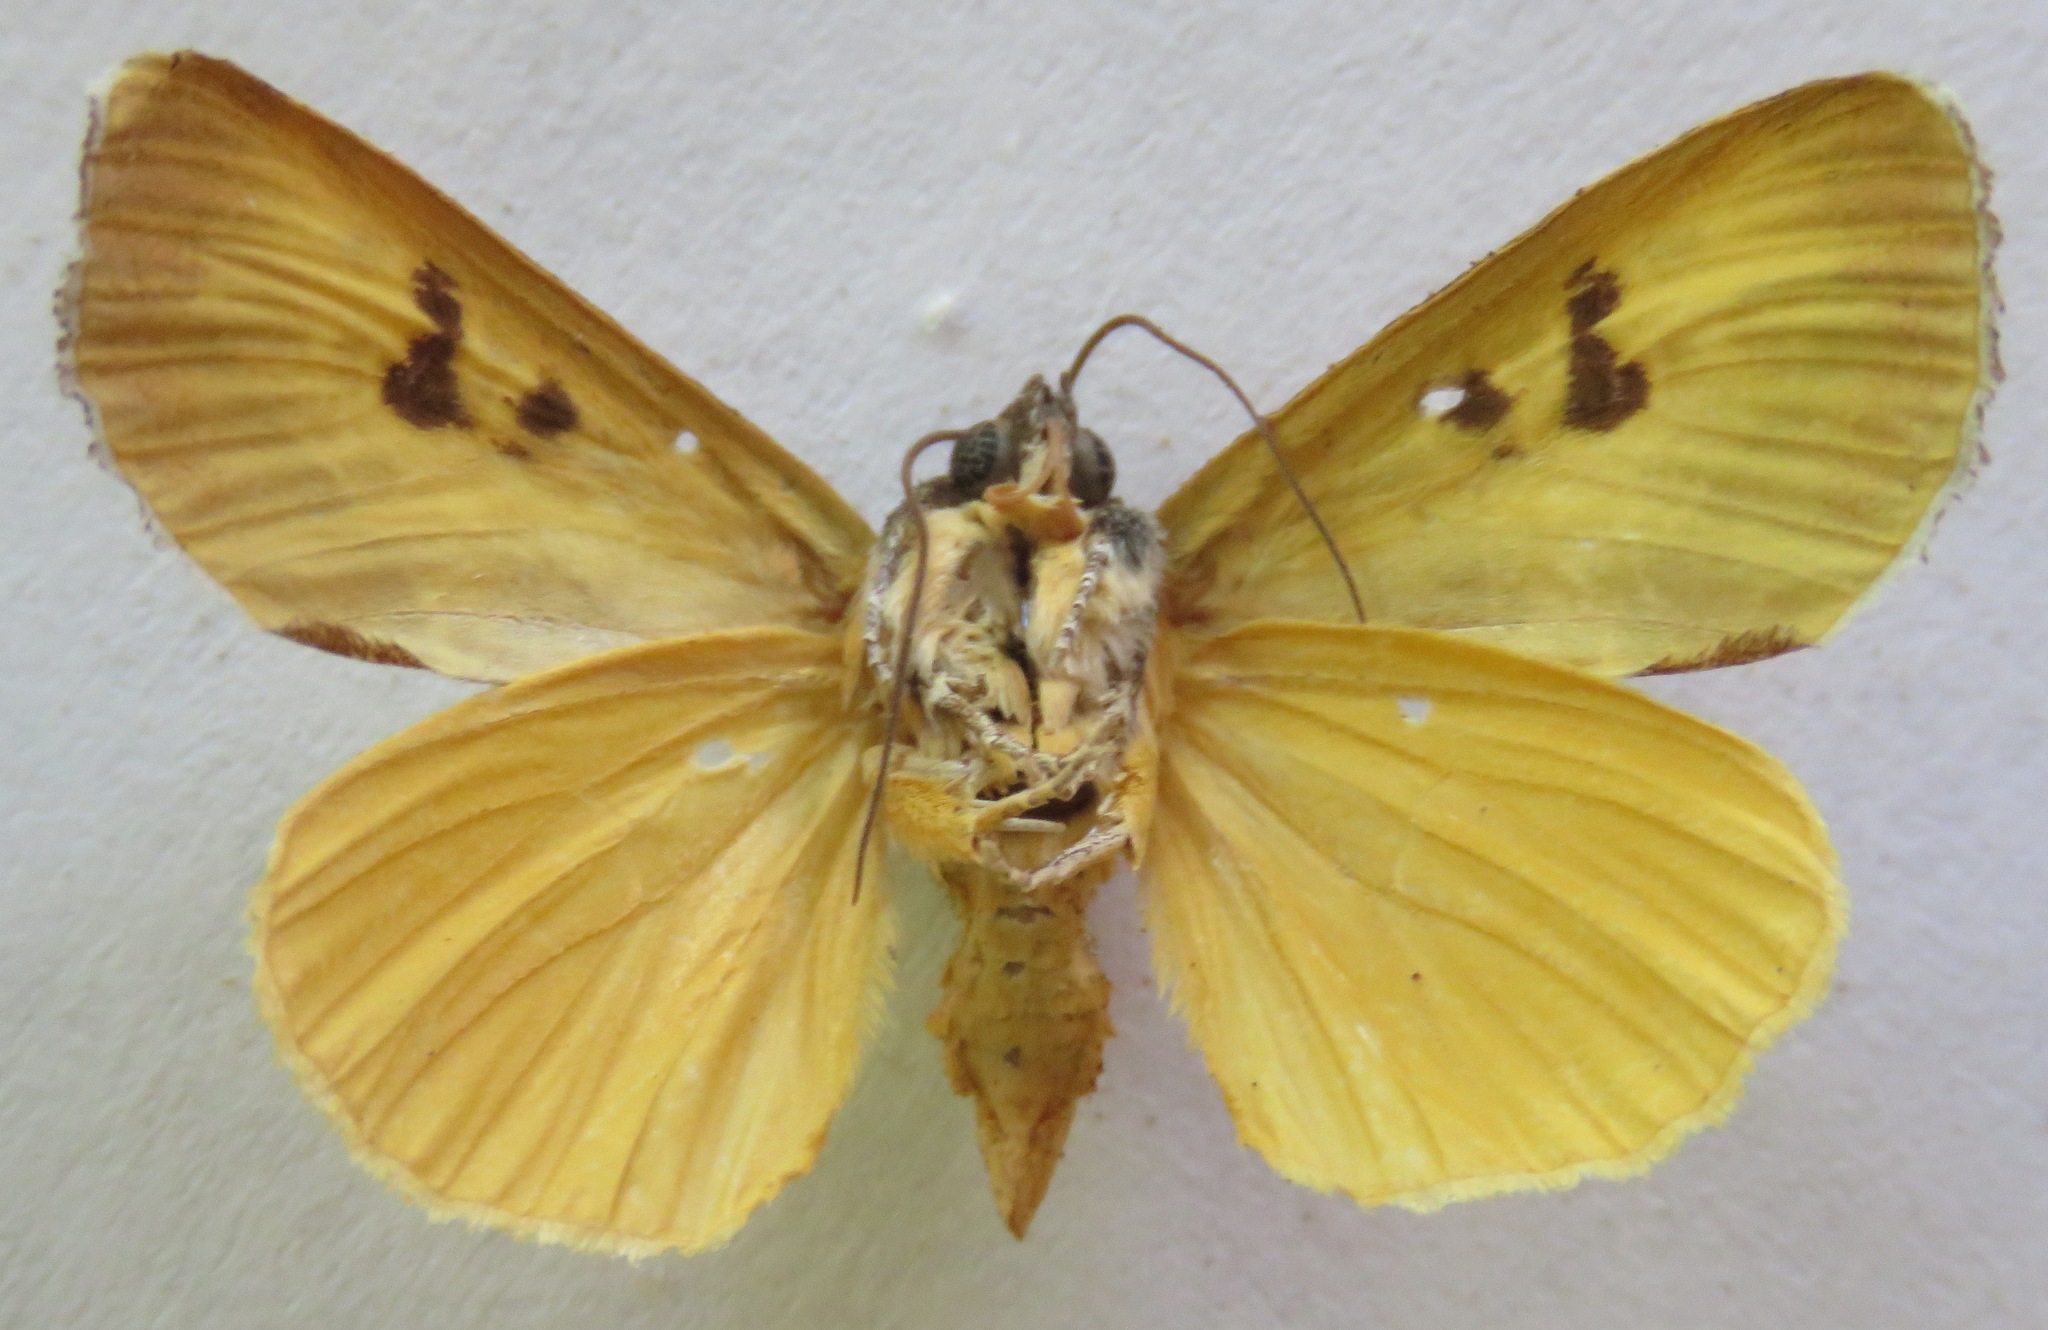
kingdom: Animalia
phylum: Arthropoda
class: Insecta
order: Lepidoptera
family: Noctuidae
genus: Epithisanotia
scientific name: Epithisanotia sanctijohannis
